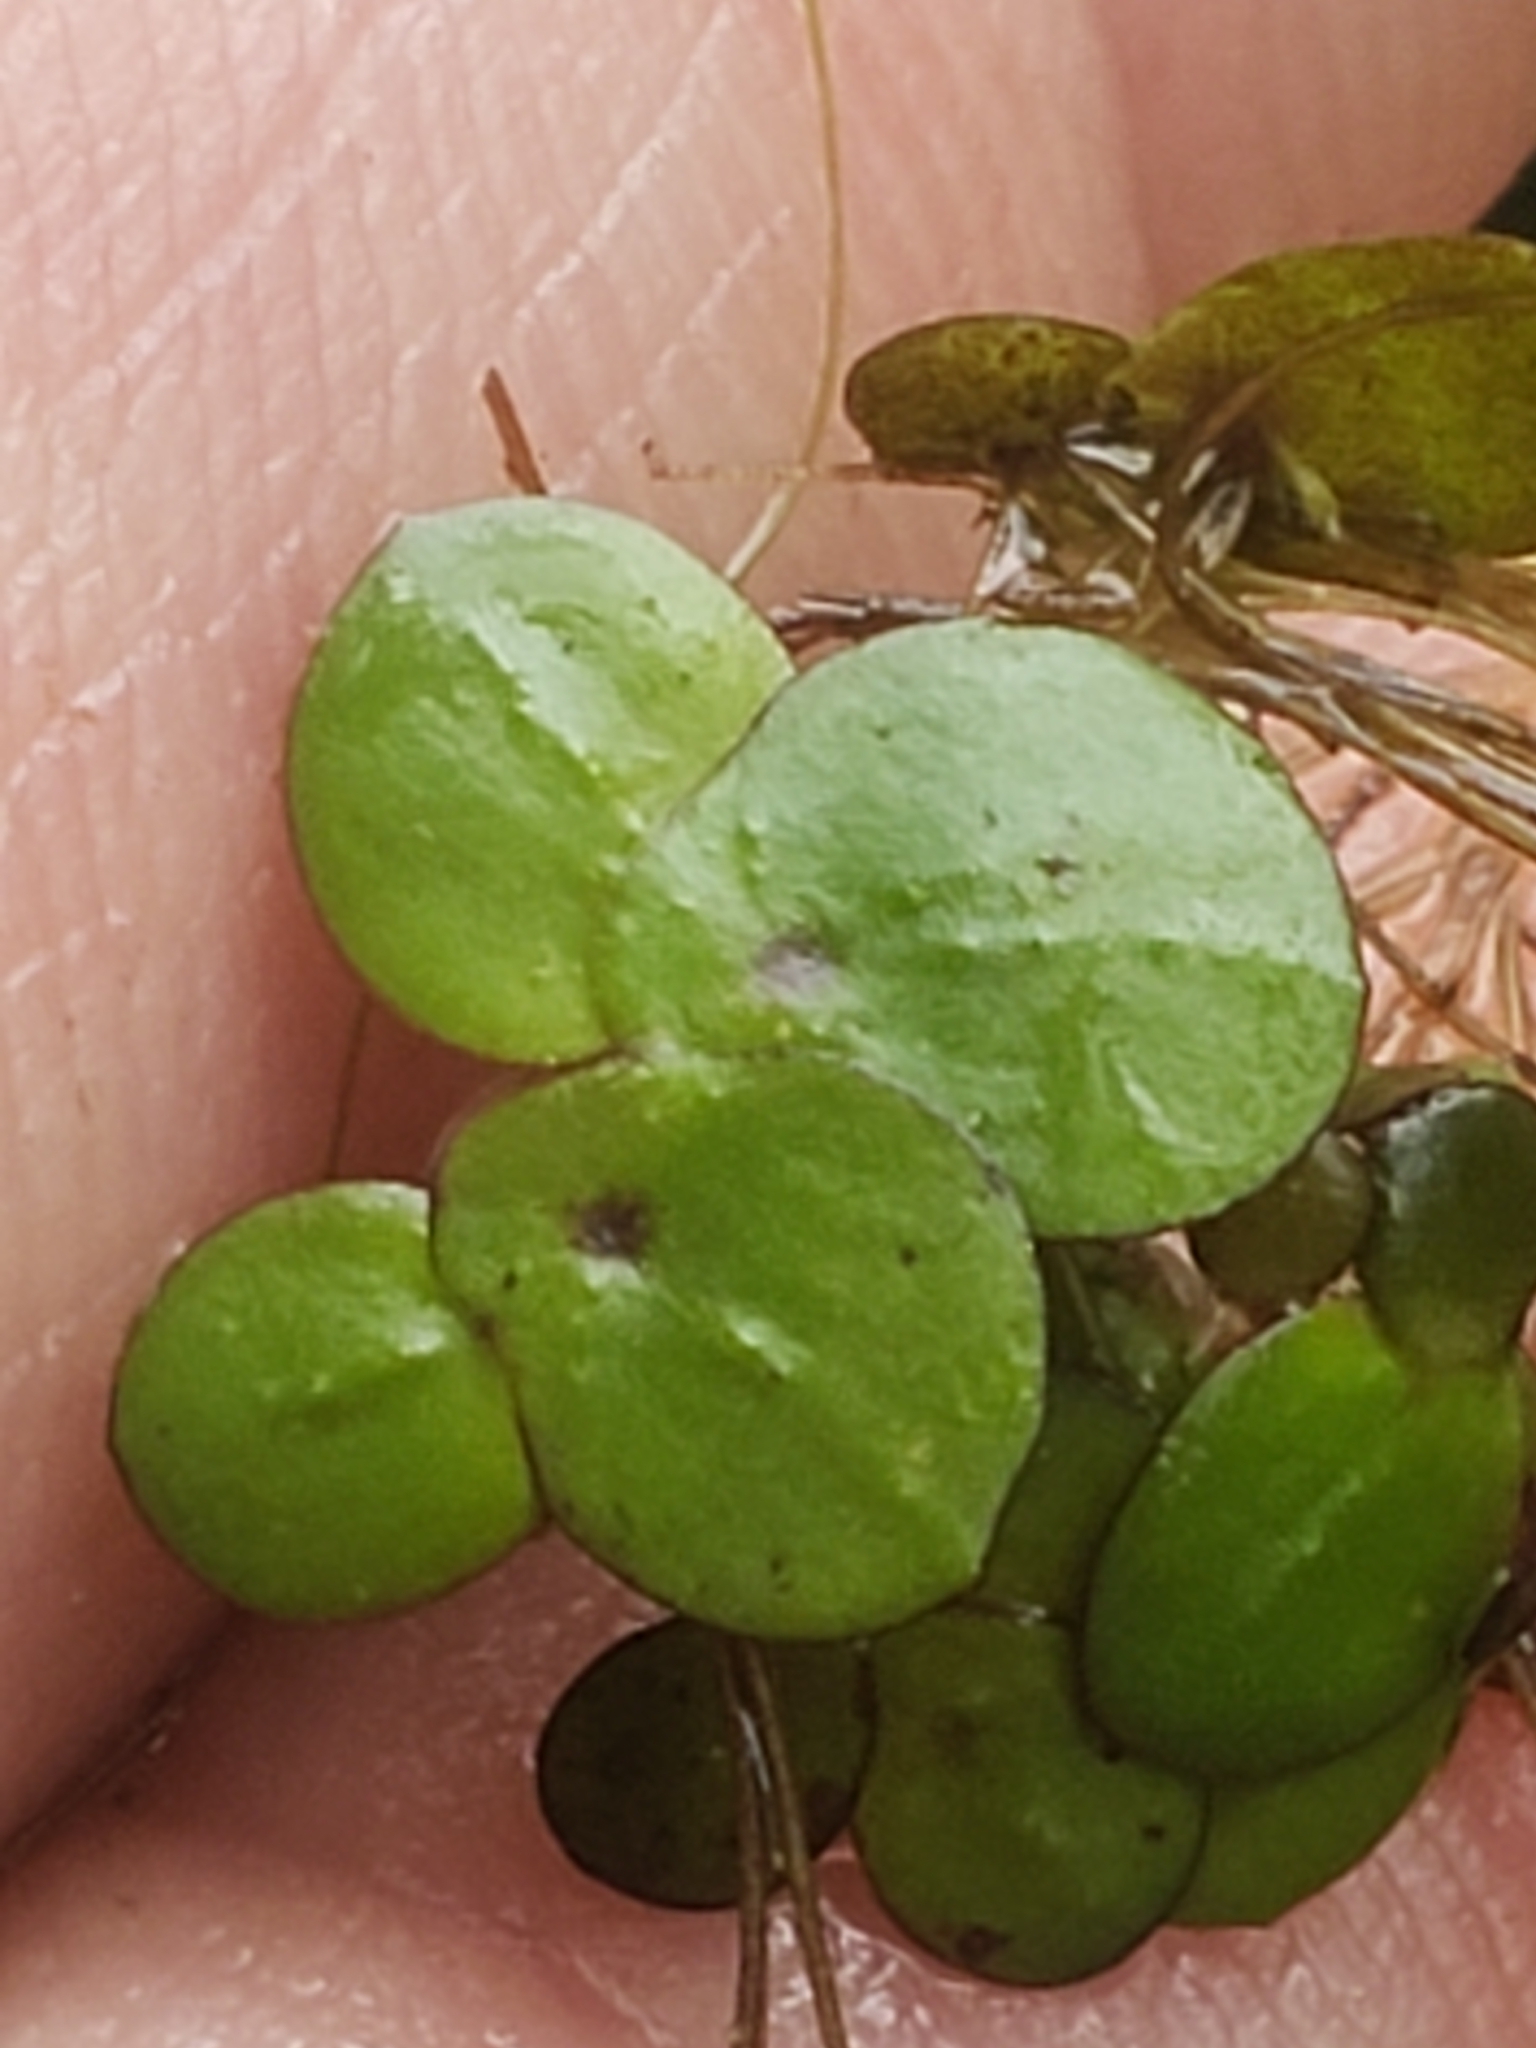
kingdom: Plantae
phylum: Tracheophyta
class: Liliopsida
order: Alismatales
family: Araceae
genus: Spirodela
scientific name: Spirodela polyrhiza
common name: Great duckweed
